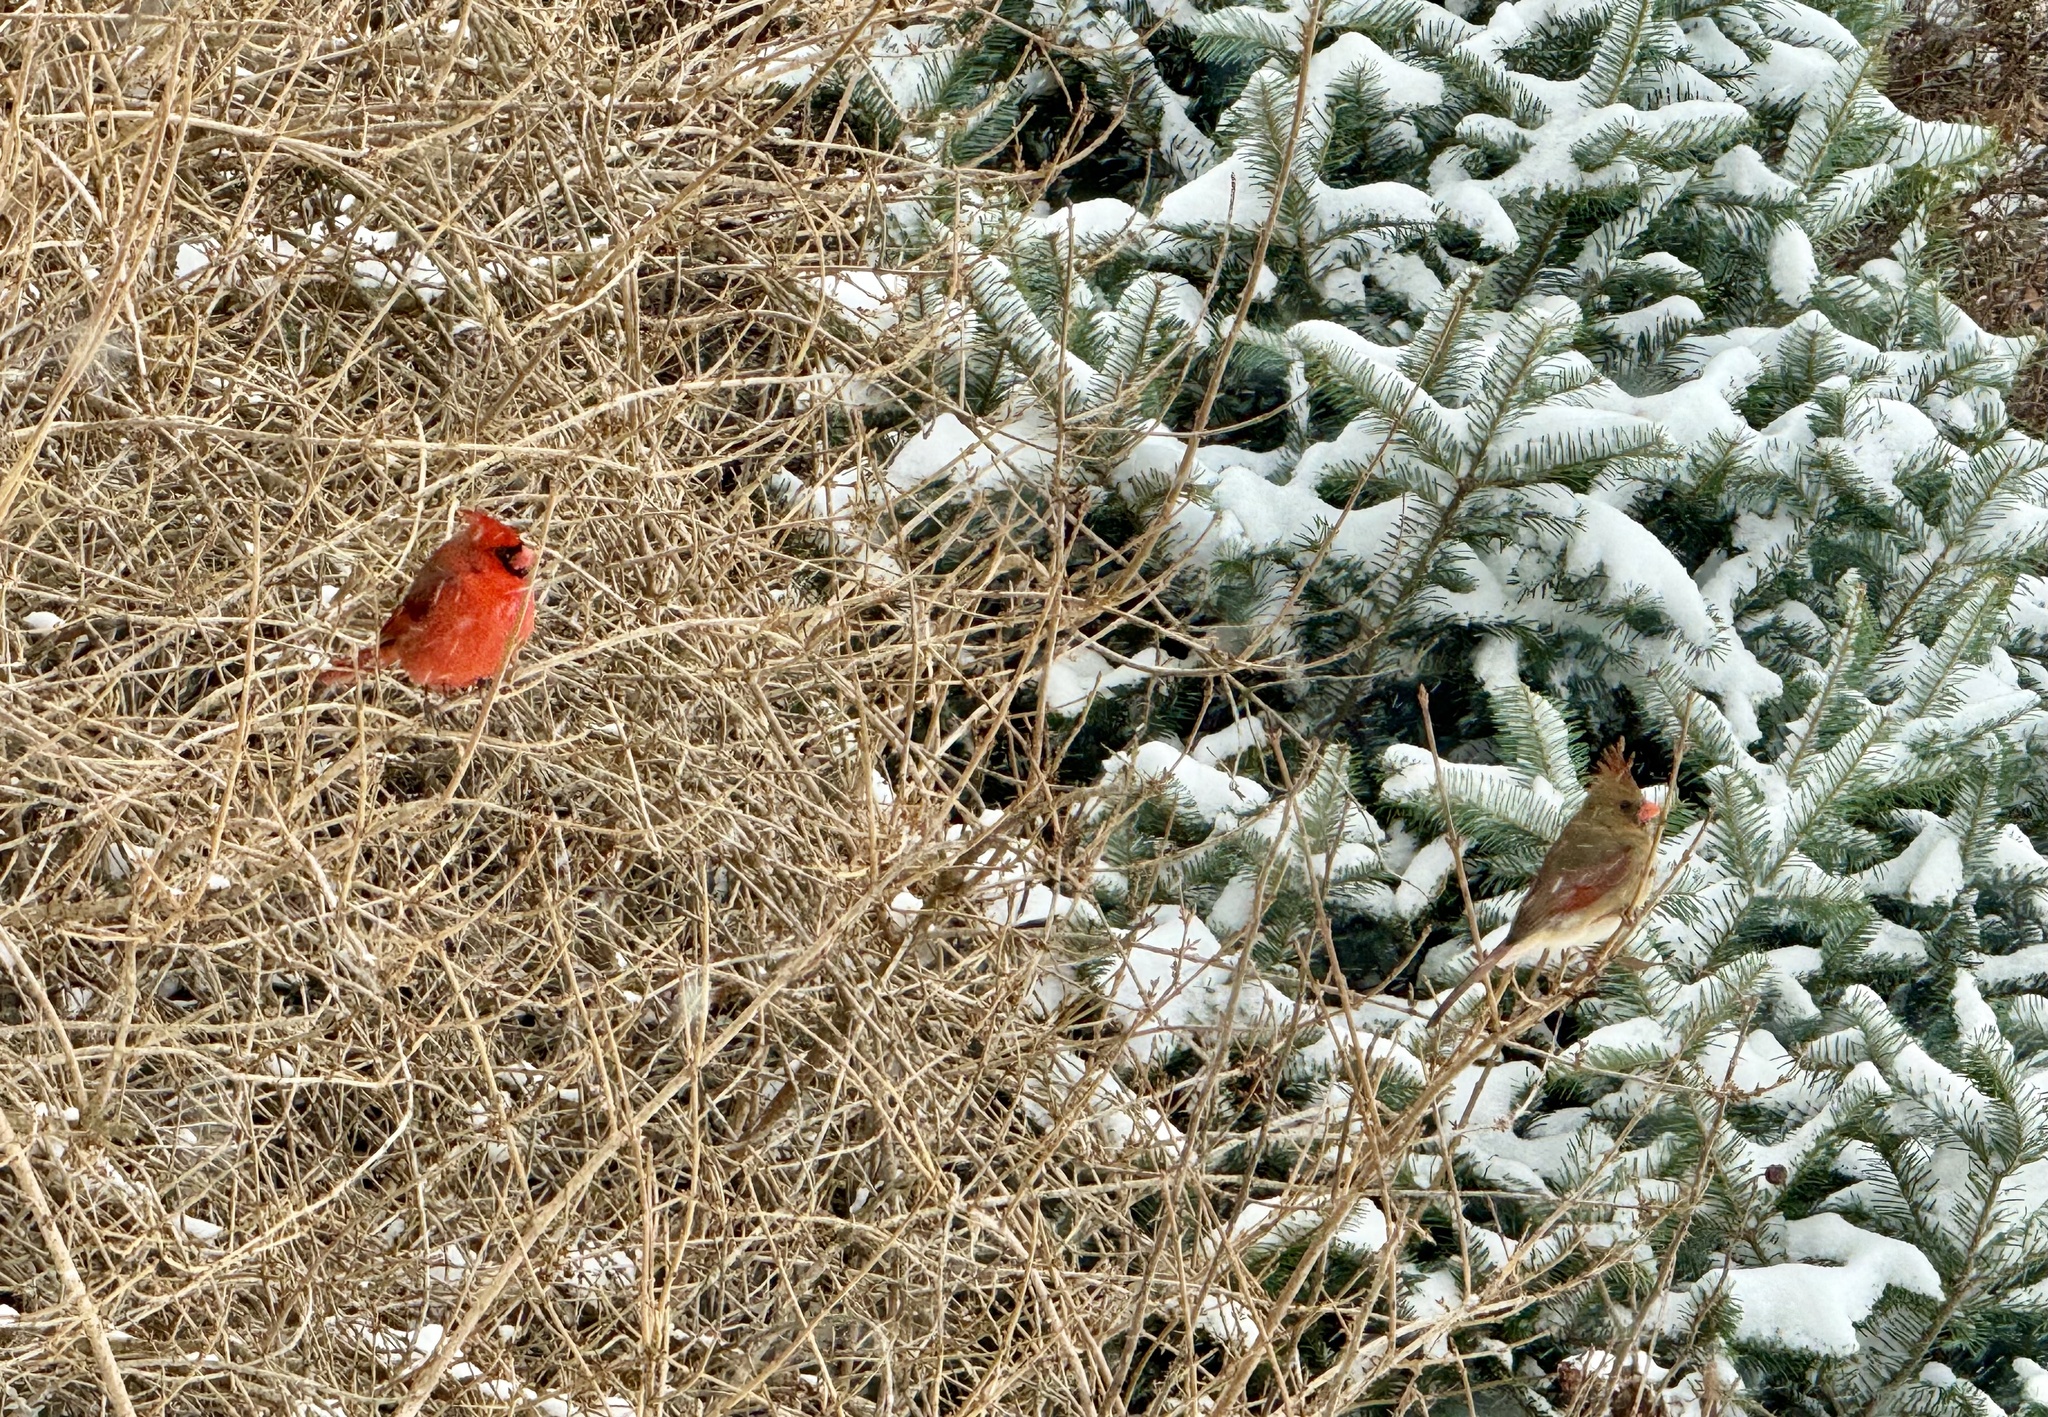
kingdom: Animalia
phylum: Chordata
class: Aves
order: Passeriformes
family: Cardinalidae
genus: Cardinalis
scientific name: Cardinalis cardinalis
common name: Northern cardinal
